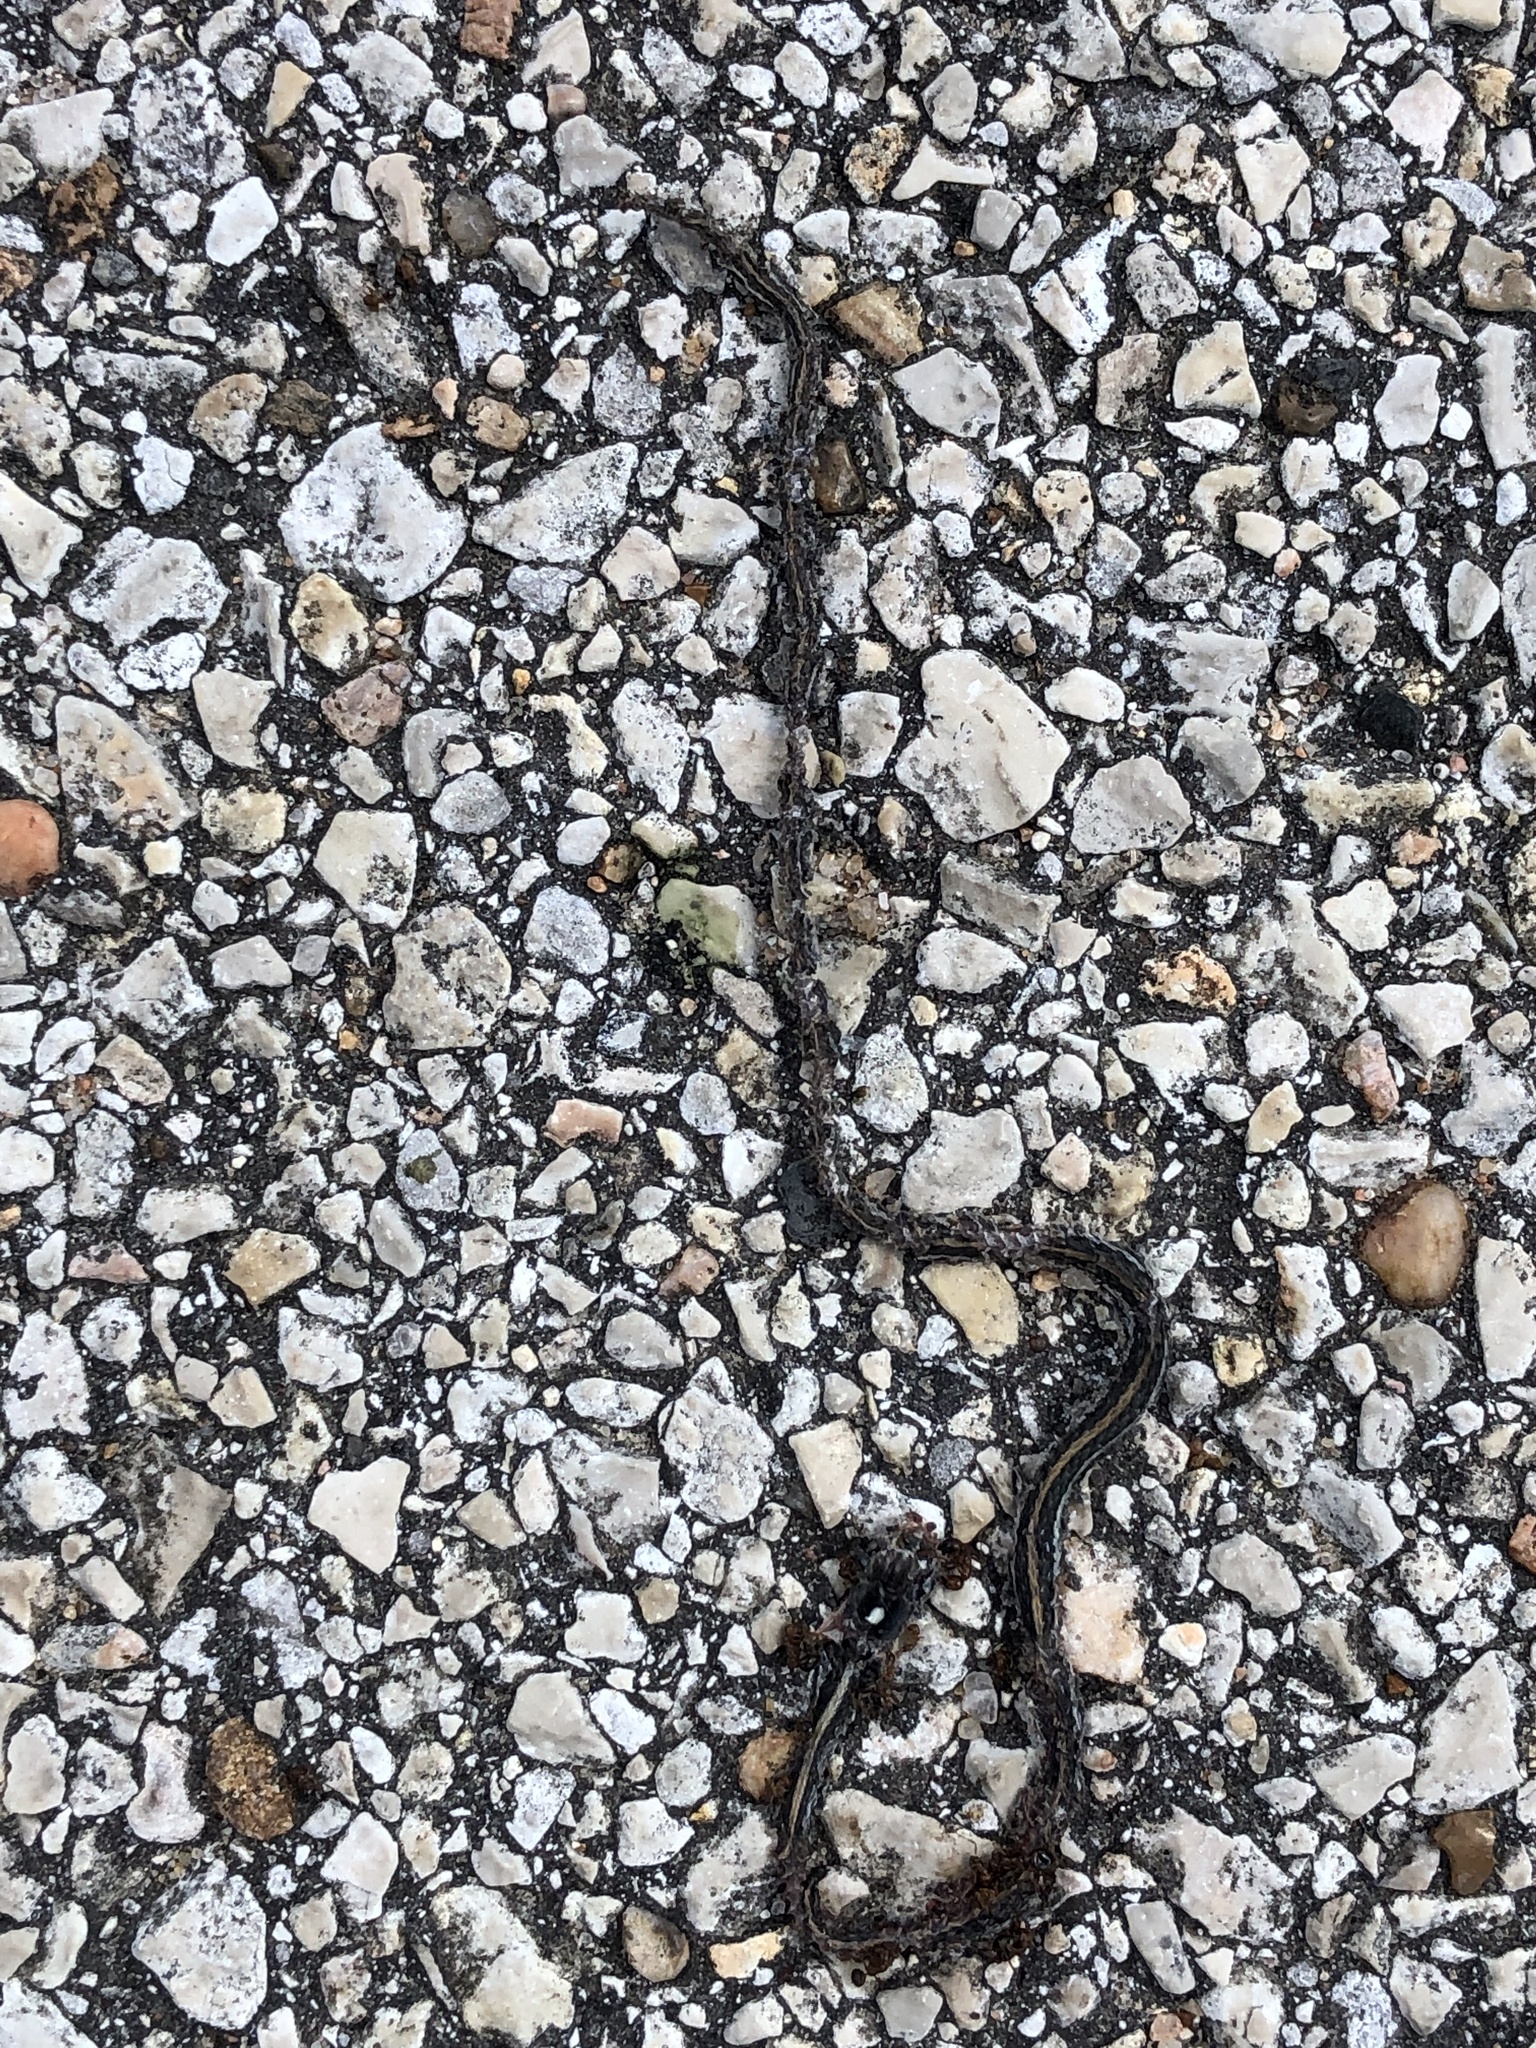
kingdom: Animalia
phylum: Chordata
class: Squamata
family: Colubridae
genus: Thamnophis
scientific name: Thamnophis proximus
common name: Western ribbon snake
